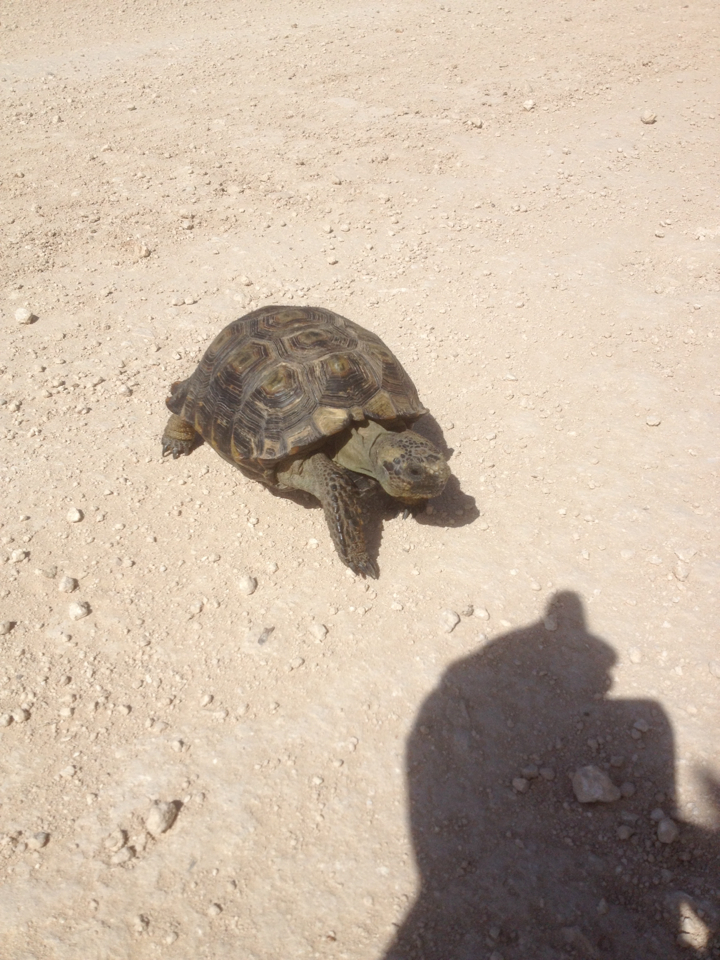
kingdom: Animalia
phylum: Chordata
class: Testudines
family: Testudinidae
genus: Gopherus
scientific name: Gopherus berlandieri
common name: Texas (gopher )tortoise
